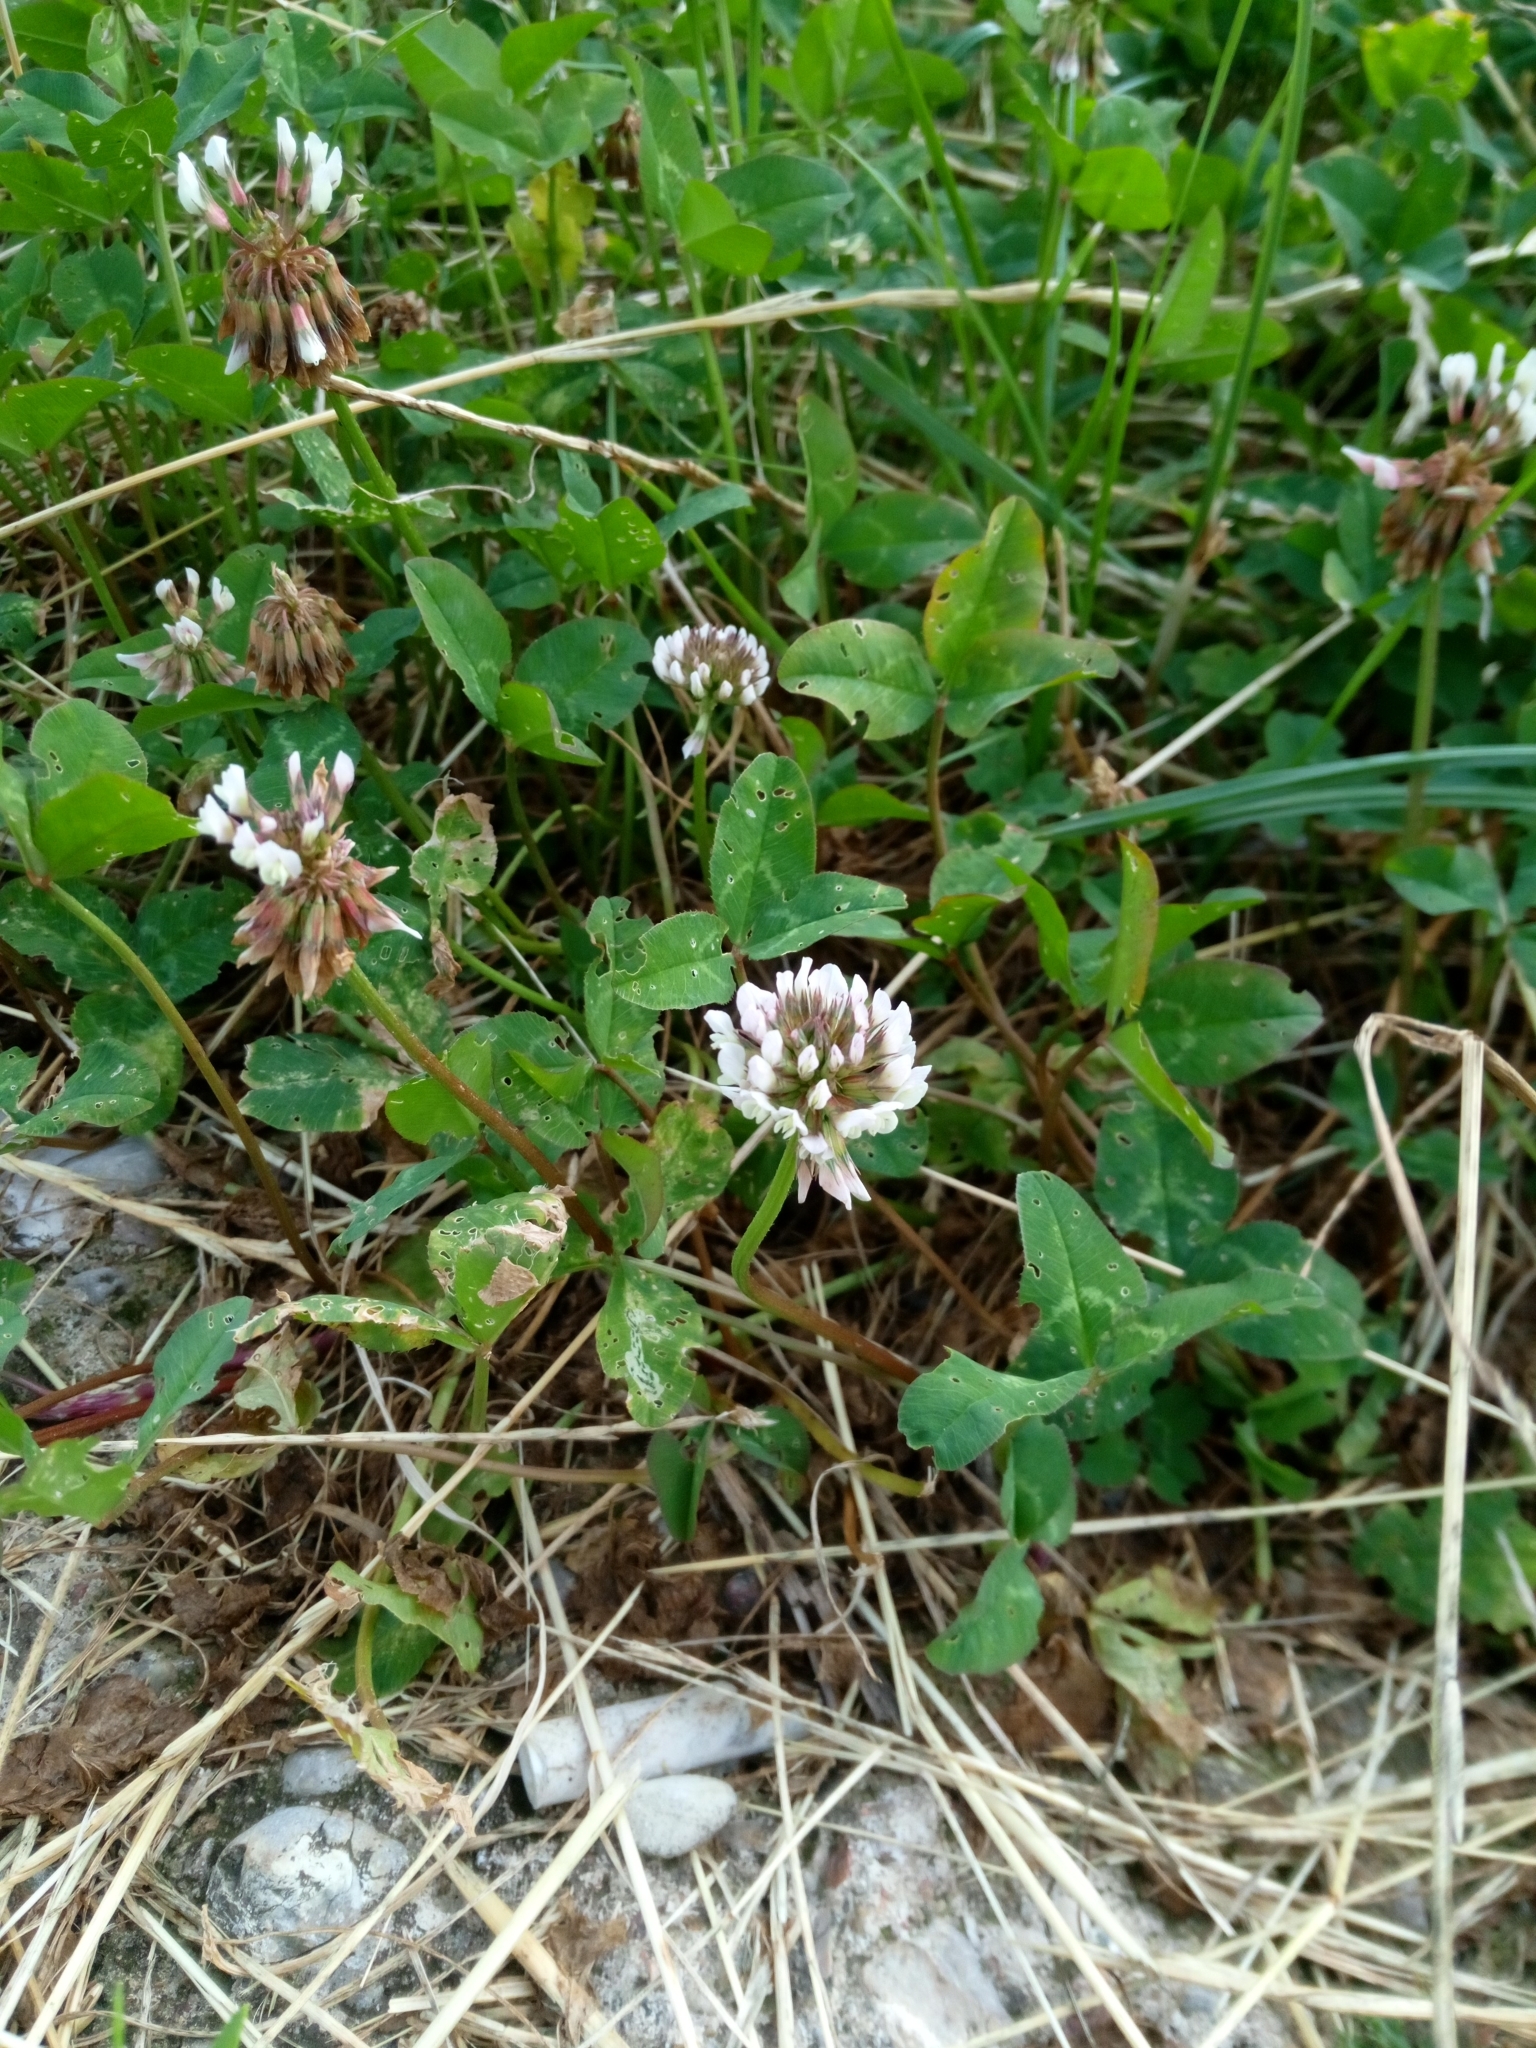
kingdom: Plantae
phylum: Tracheophyta
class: Magnoliopsida
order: Fabales
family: Fabaceae
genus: Trifolium
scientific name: Trifolium repens
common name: White clover
